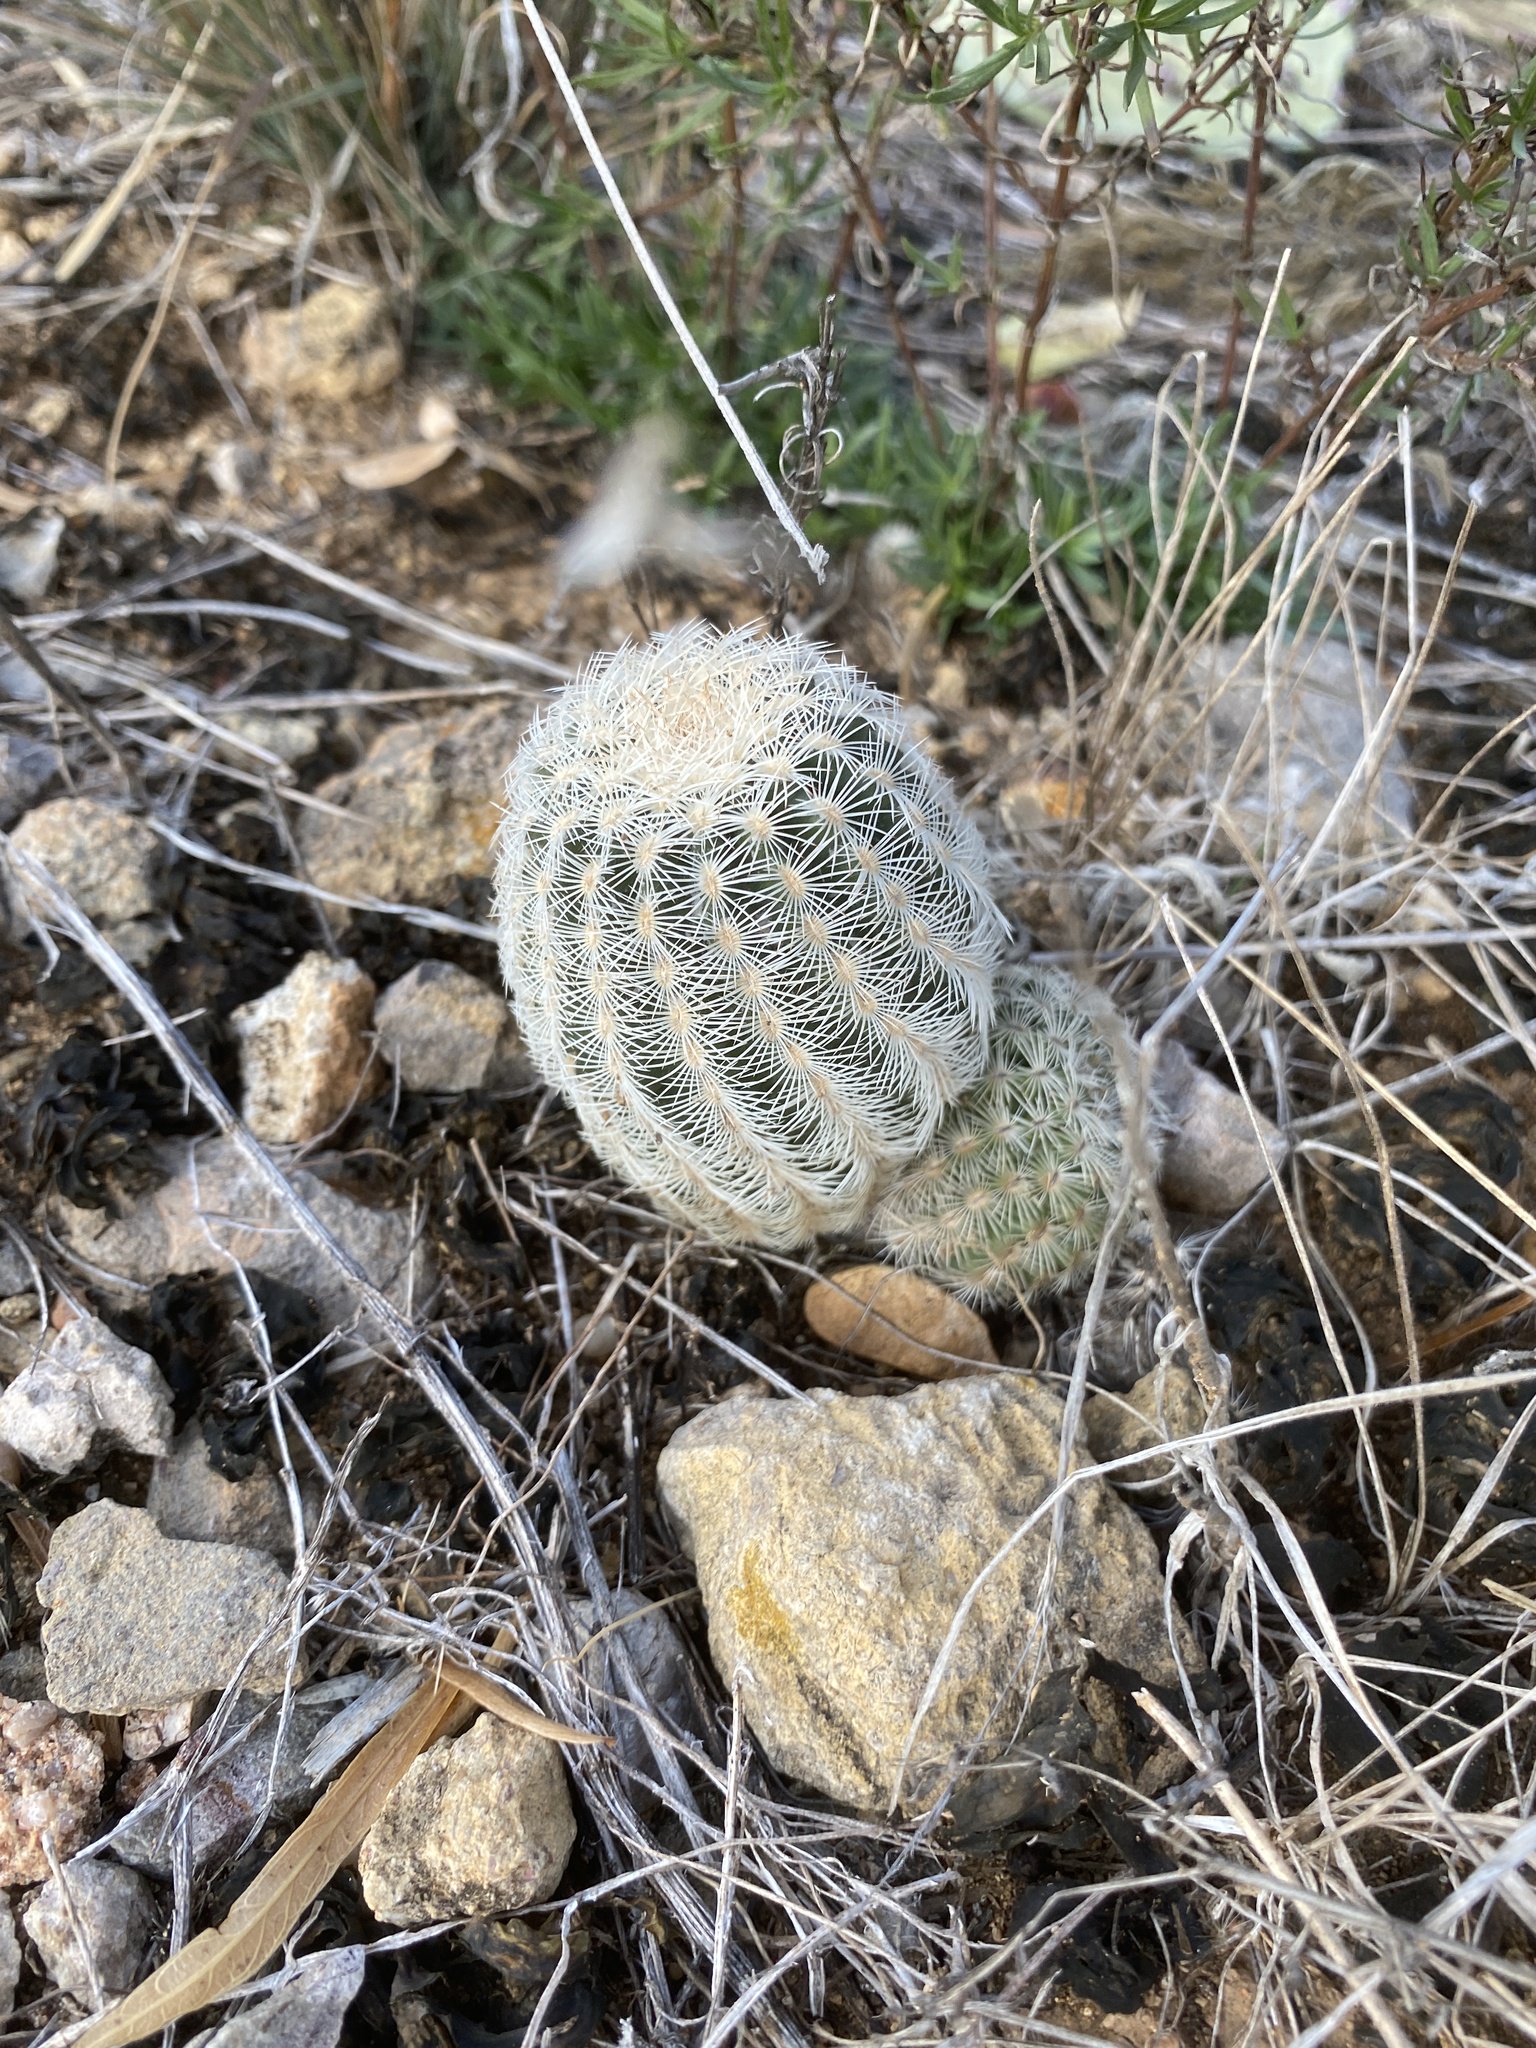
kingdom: Plantae
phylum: Tracheophyta
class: Magnoliopsida
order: Caryophyllales
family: Cactaceae
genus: Echinocereus
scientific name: Echinocereus reichenbachii
